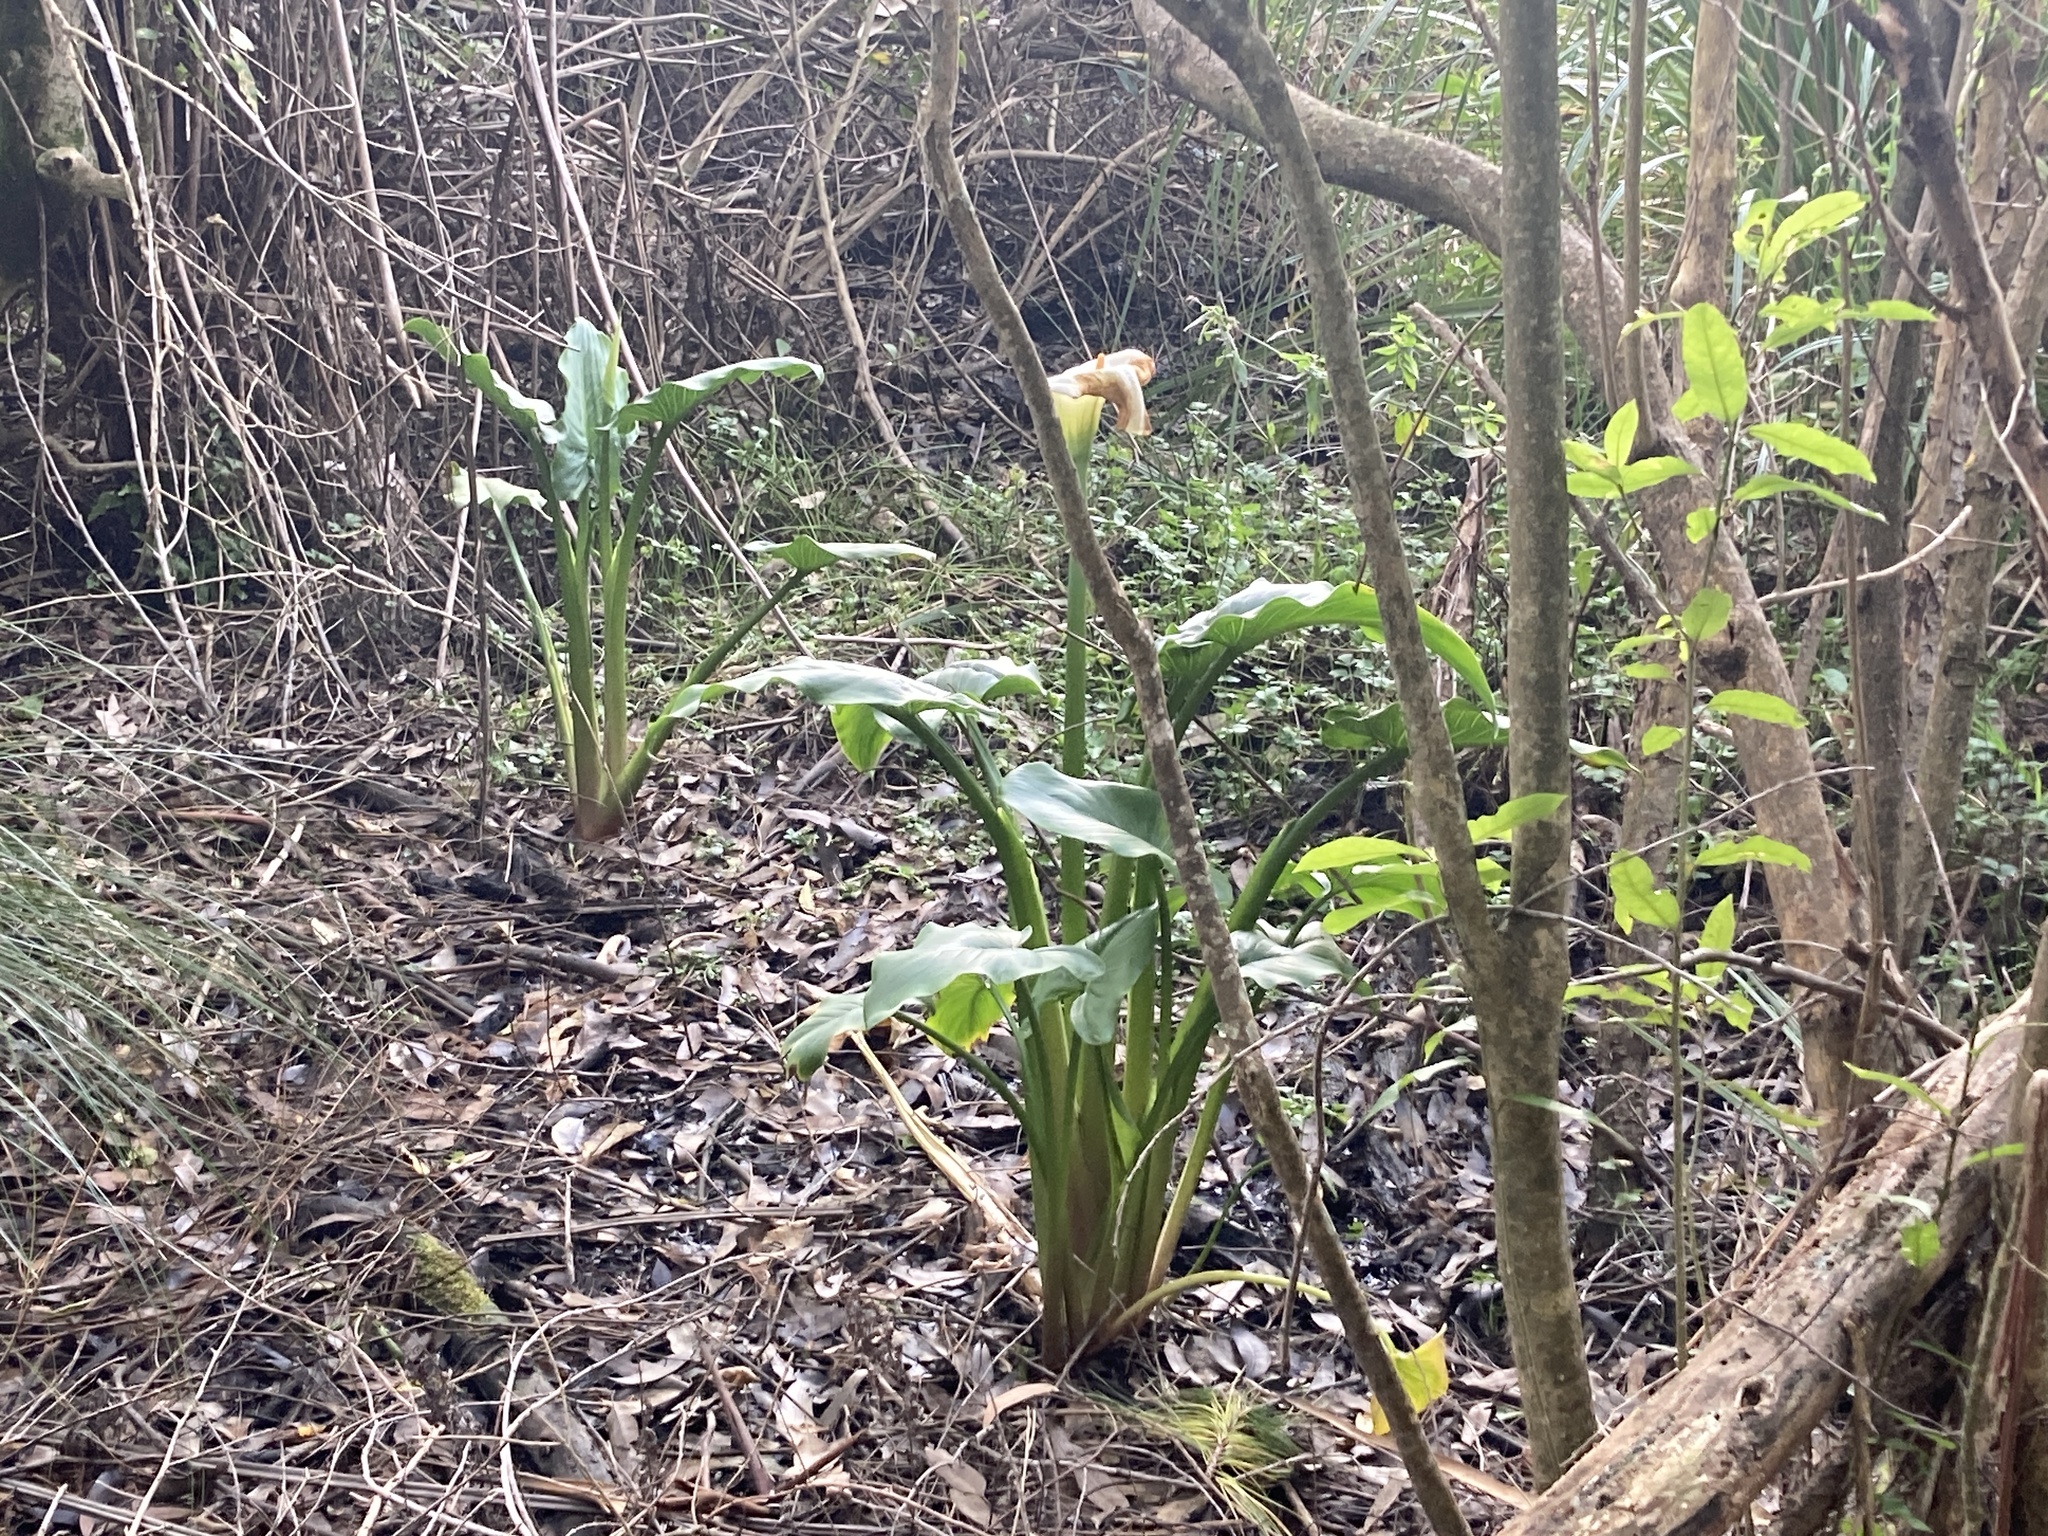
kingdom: Plantae
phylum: Tracheophyta
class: Liliopsida
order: Alismatales
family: Araceae
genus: Zantedeschia
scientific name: Zantedeschia aethiopica
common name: Altar-lily
